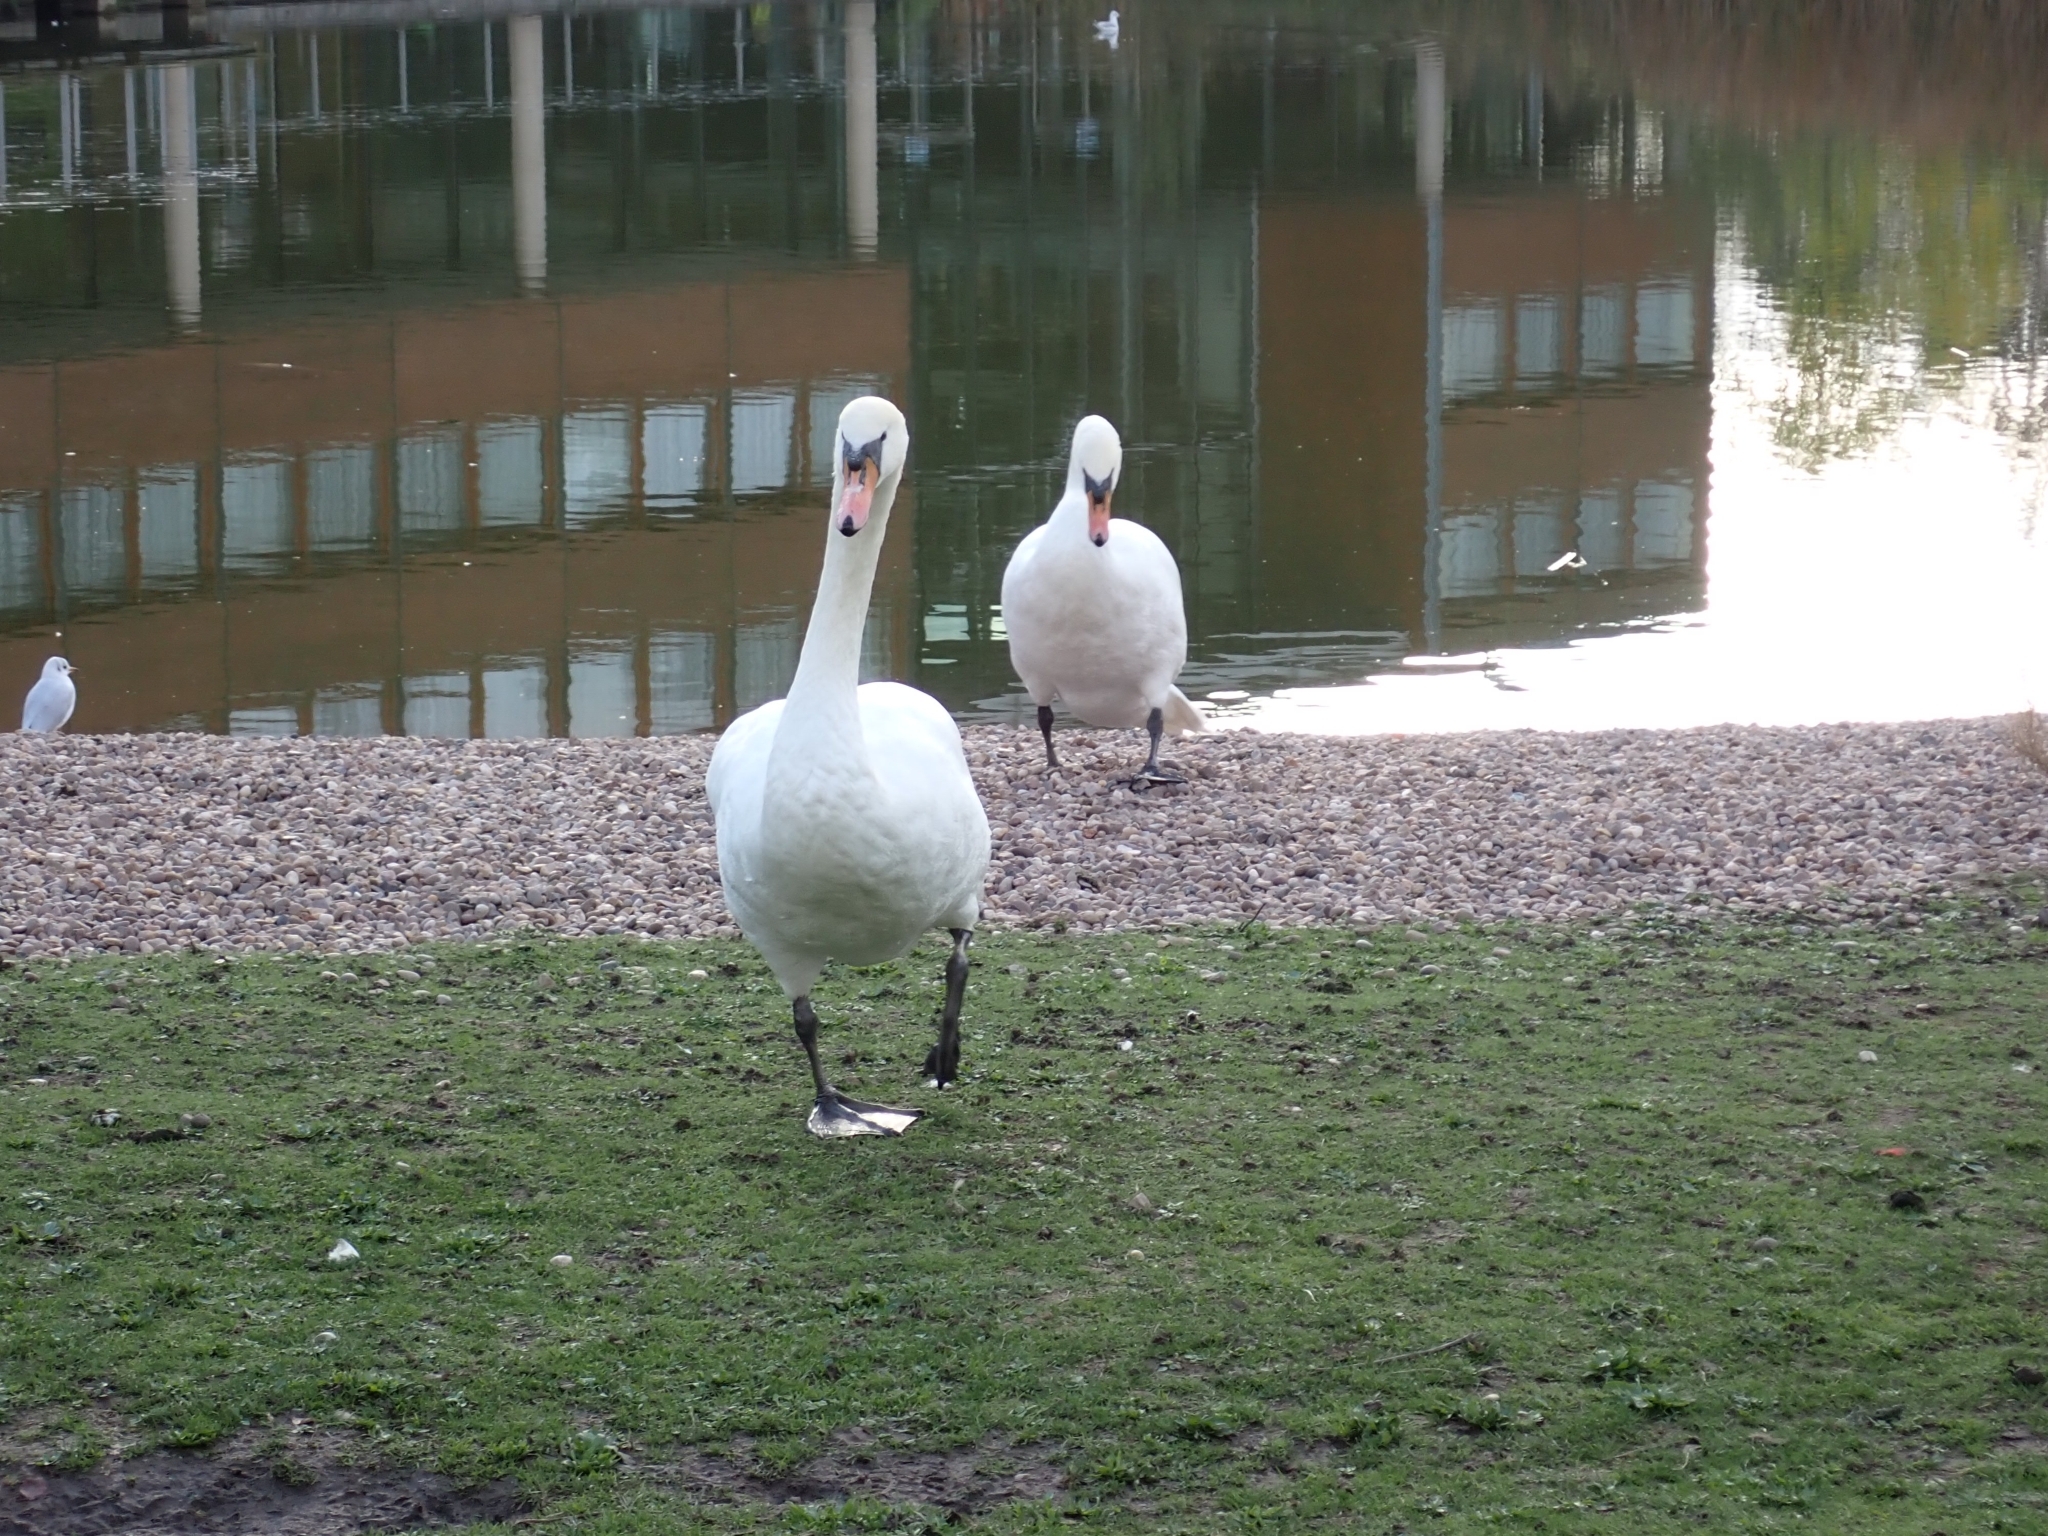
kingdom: Animalia
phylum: Chordata
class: Aves
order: Anseriformes
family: Anatidae
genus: Cygnus
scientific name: Cygnus olor
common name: Mute swan
